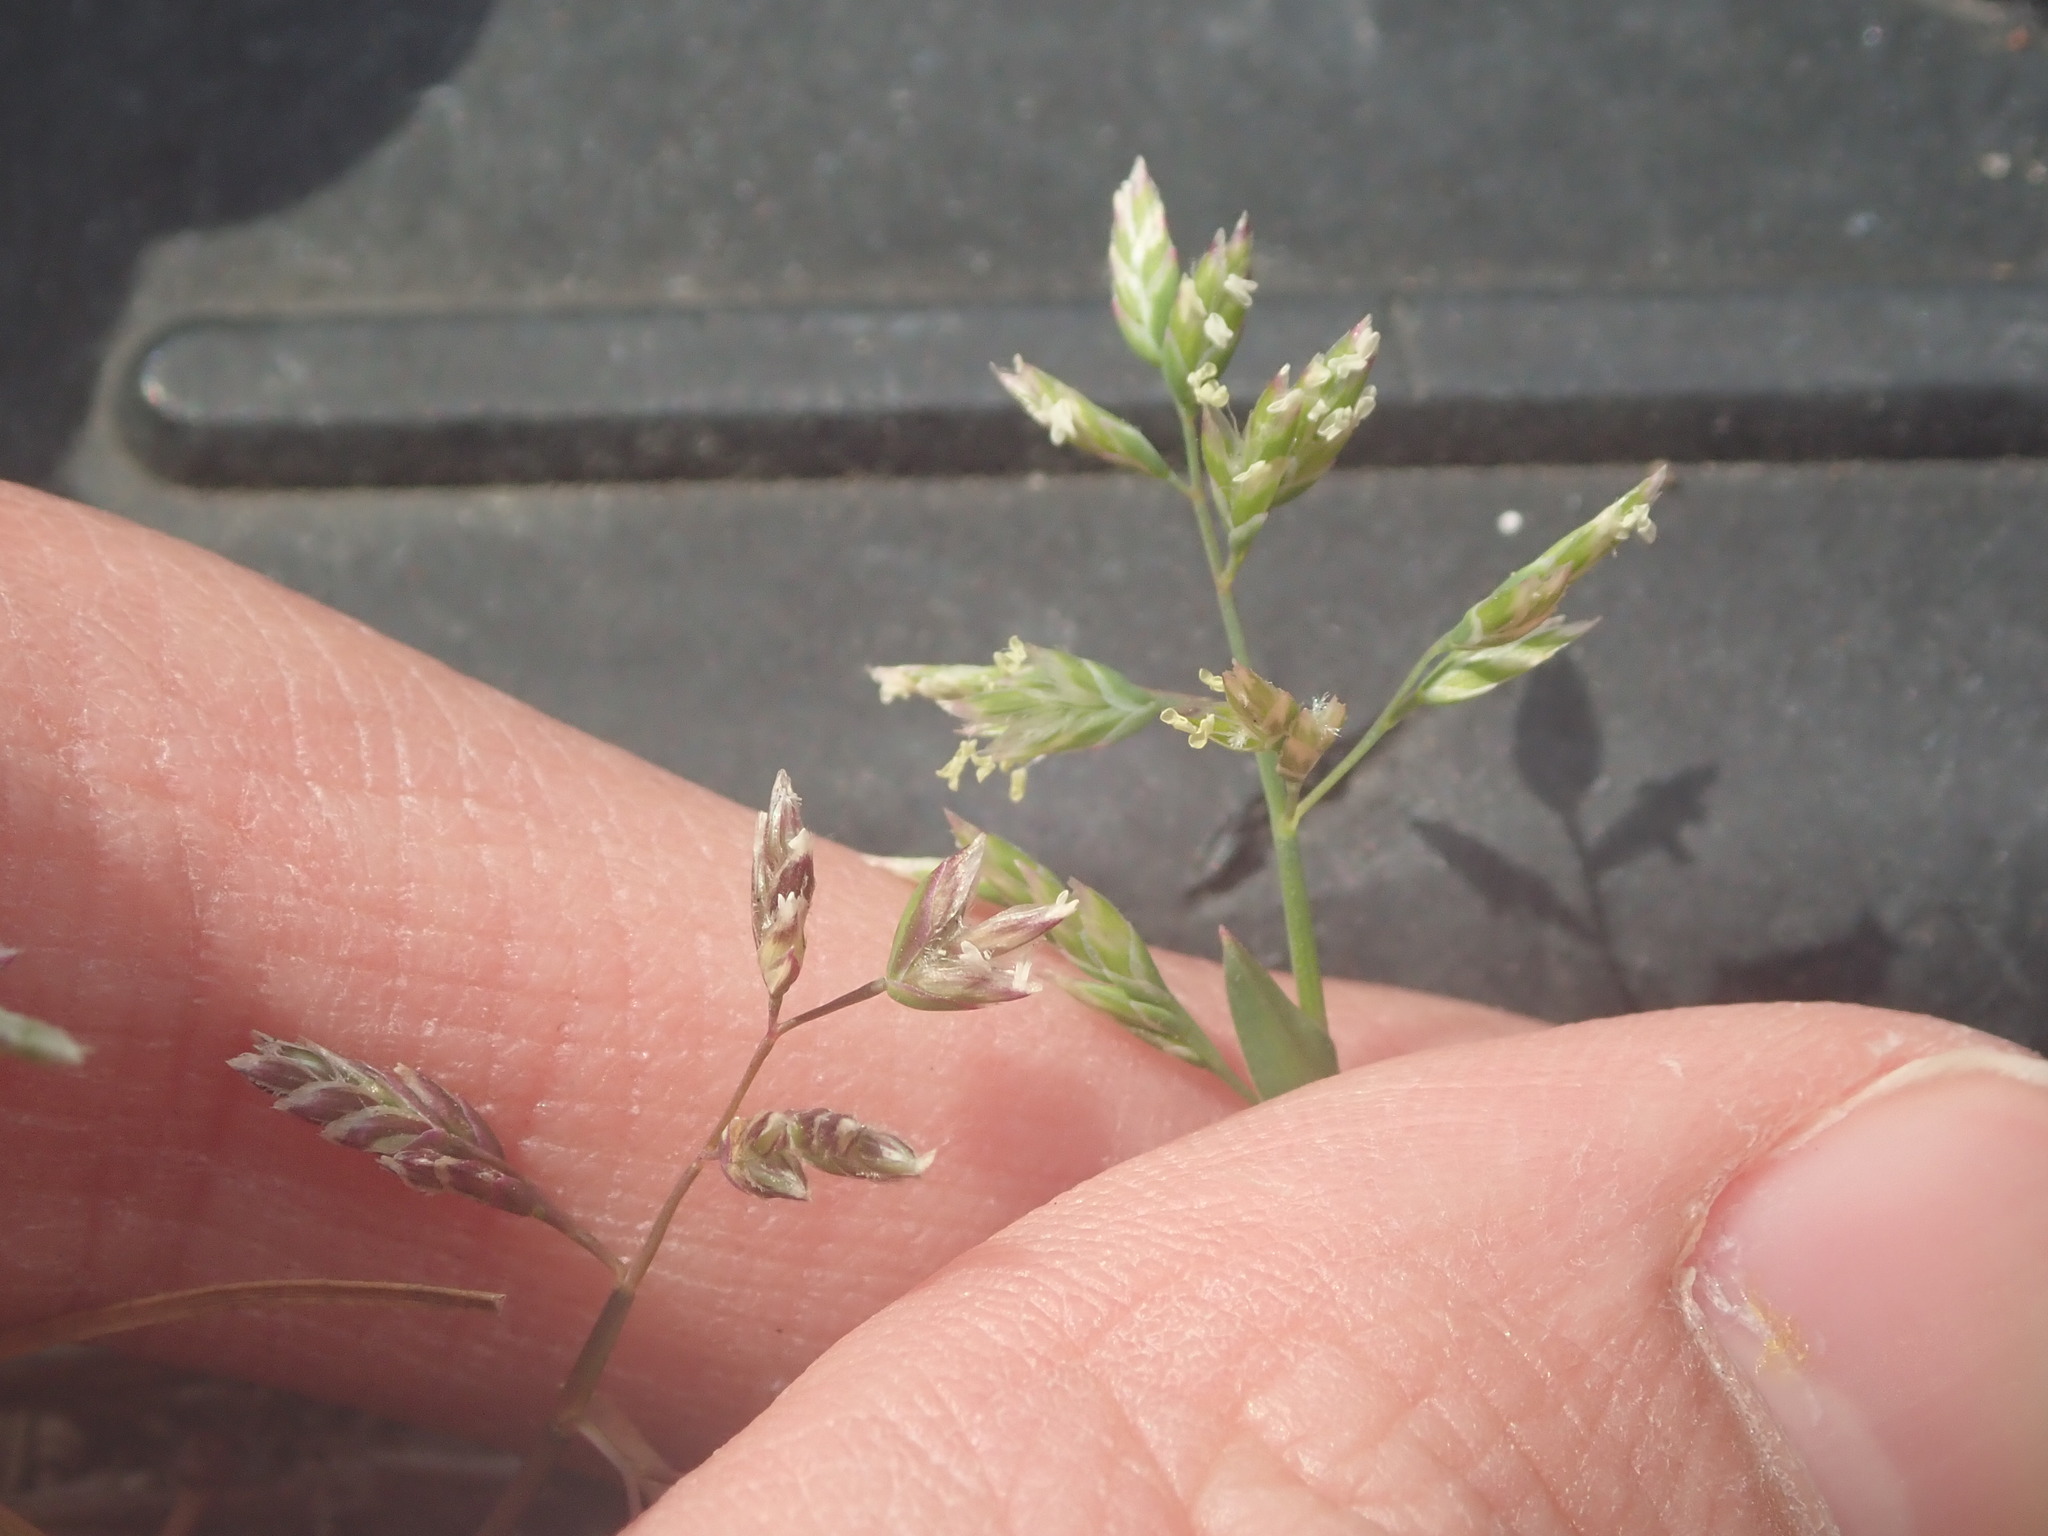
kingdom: Plantae
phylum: Tracheophyta
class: Liliopsida
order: Poales
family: Poaceae
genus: Poa
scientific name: Poa annua
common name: Annual bluegrass
